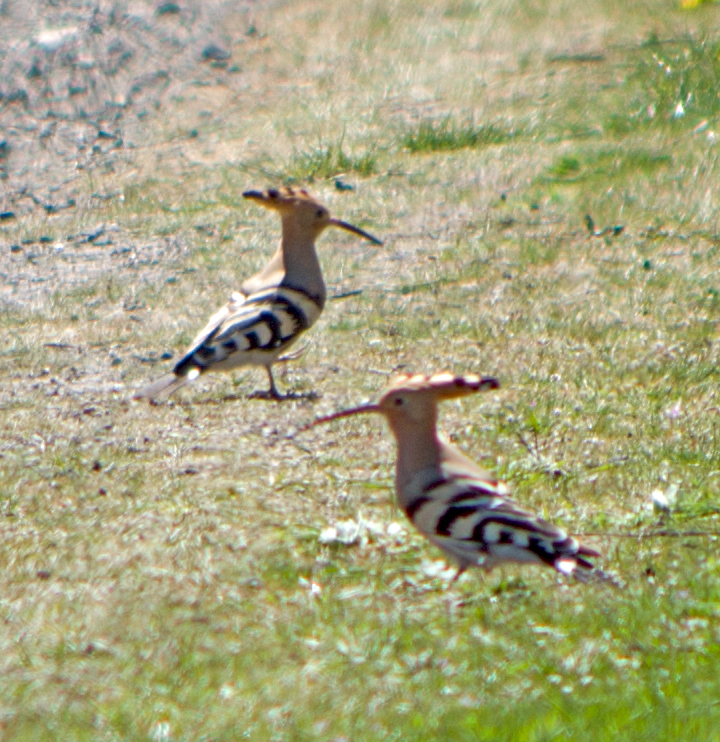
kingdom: Animalia
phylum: Chordata
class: Aves
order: Bucerotiformes
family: Upupidae
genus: Upupa
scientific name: Upupa epops
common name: Eurasian hoopoe
